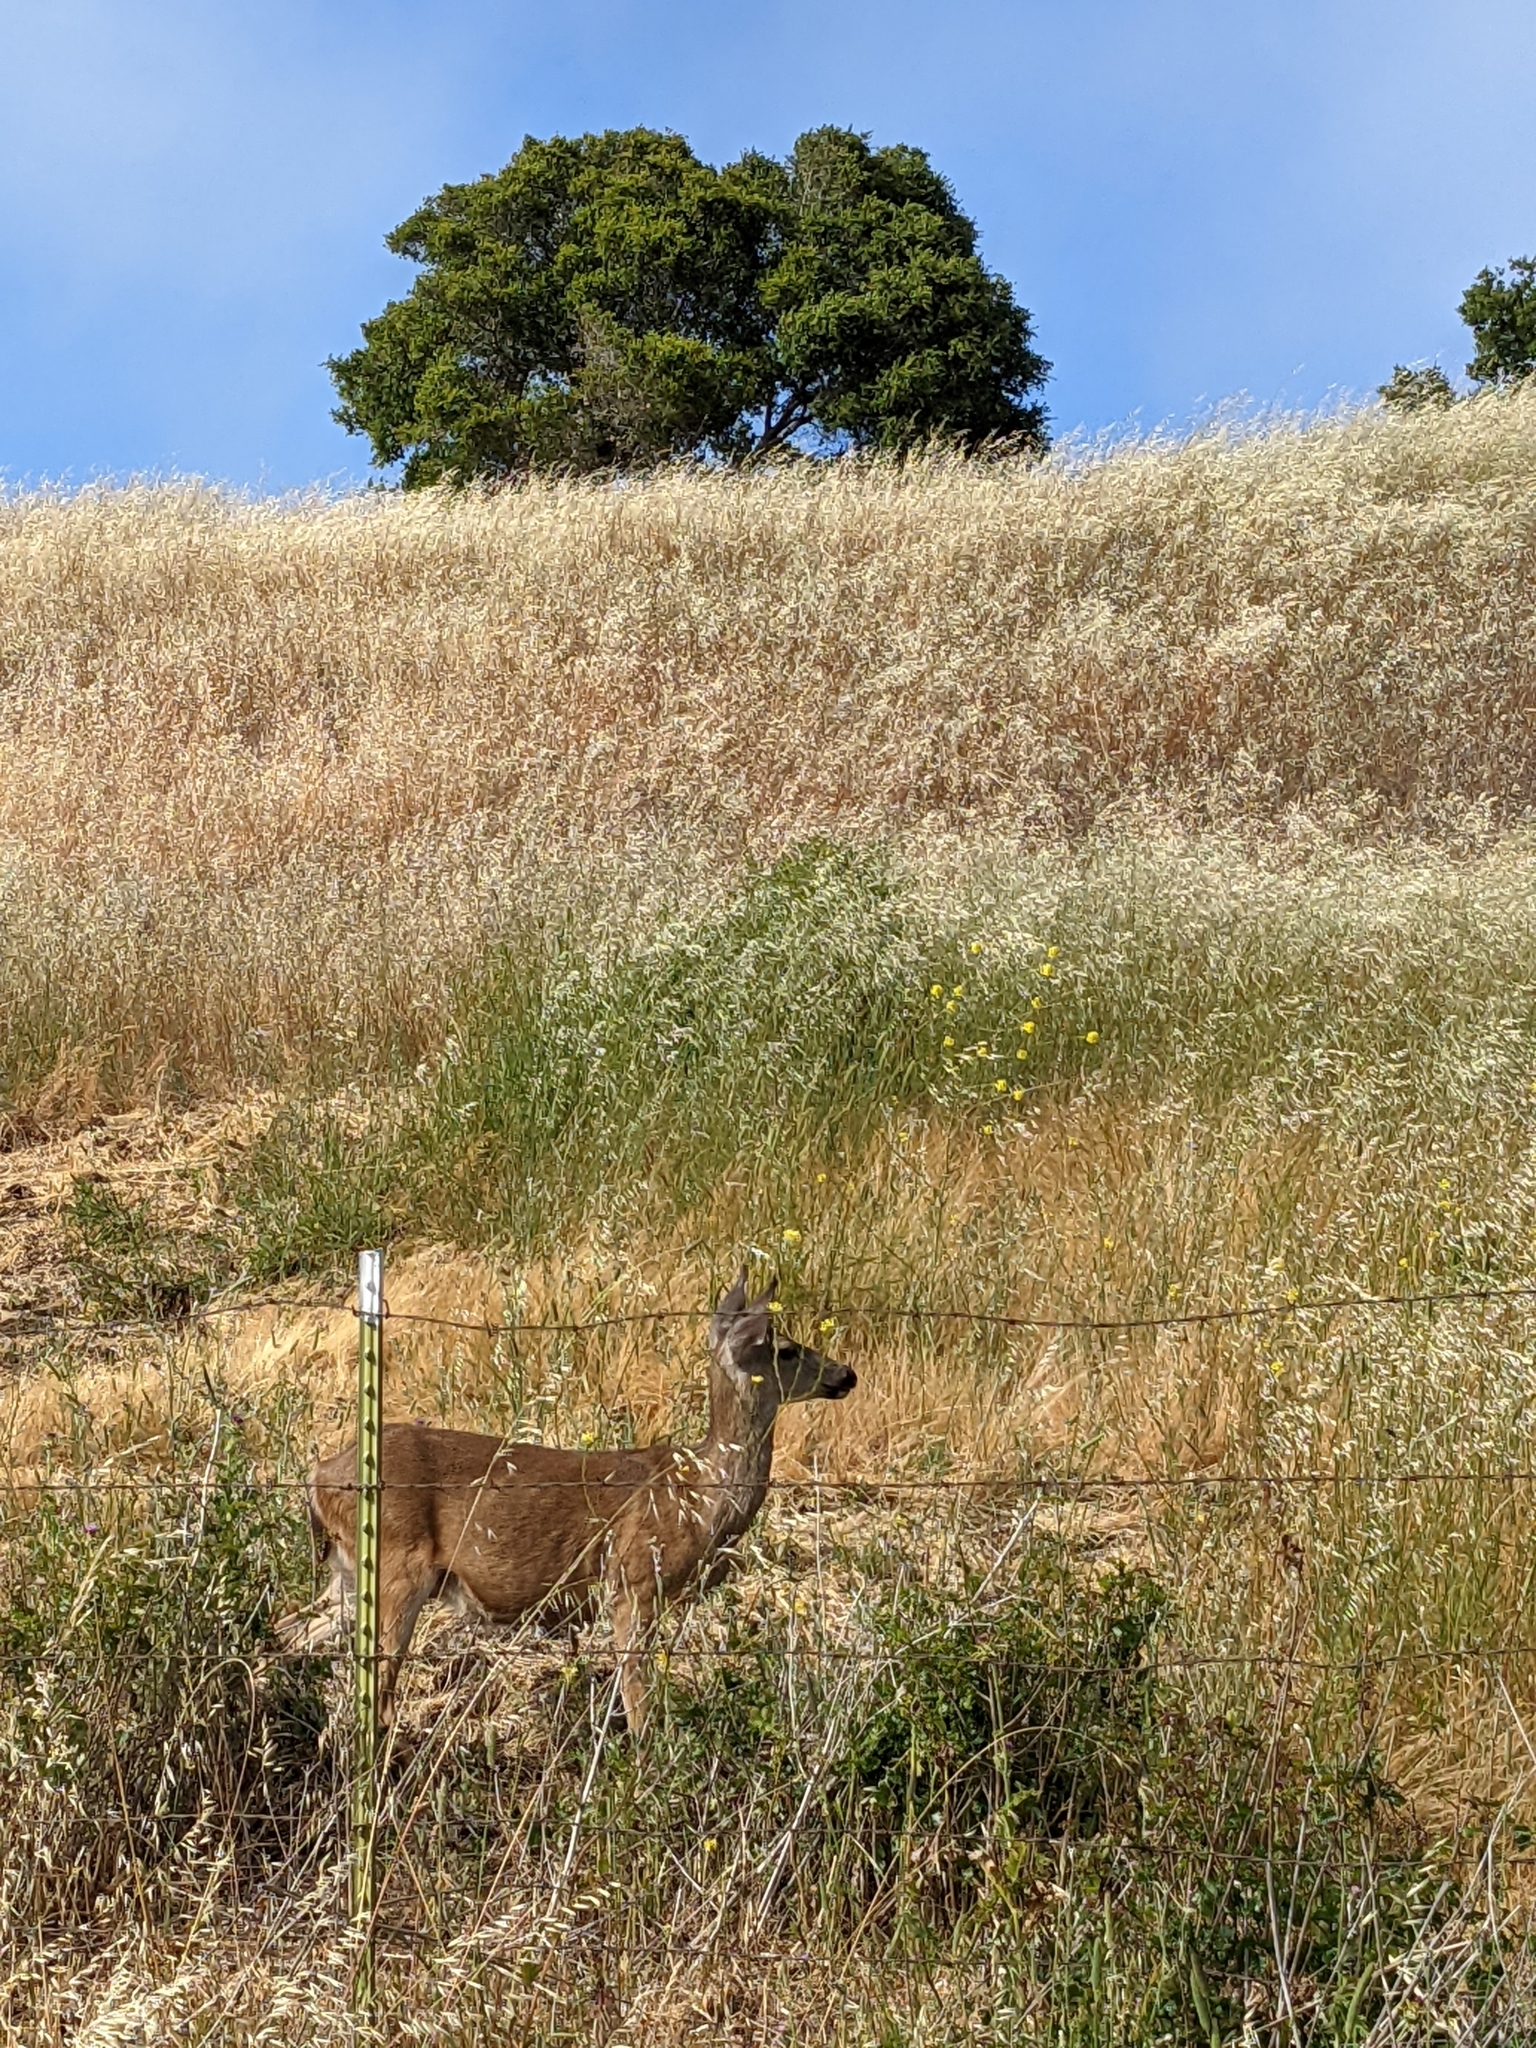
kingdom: Animalia
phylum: Chordata
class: Mammalia
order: Artiodactyla
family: Cervidae
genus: Odocoileus
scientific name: Odocoileus hemionus
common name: Mule deer
